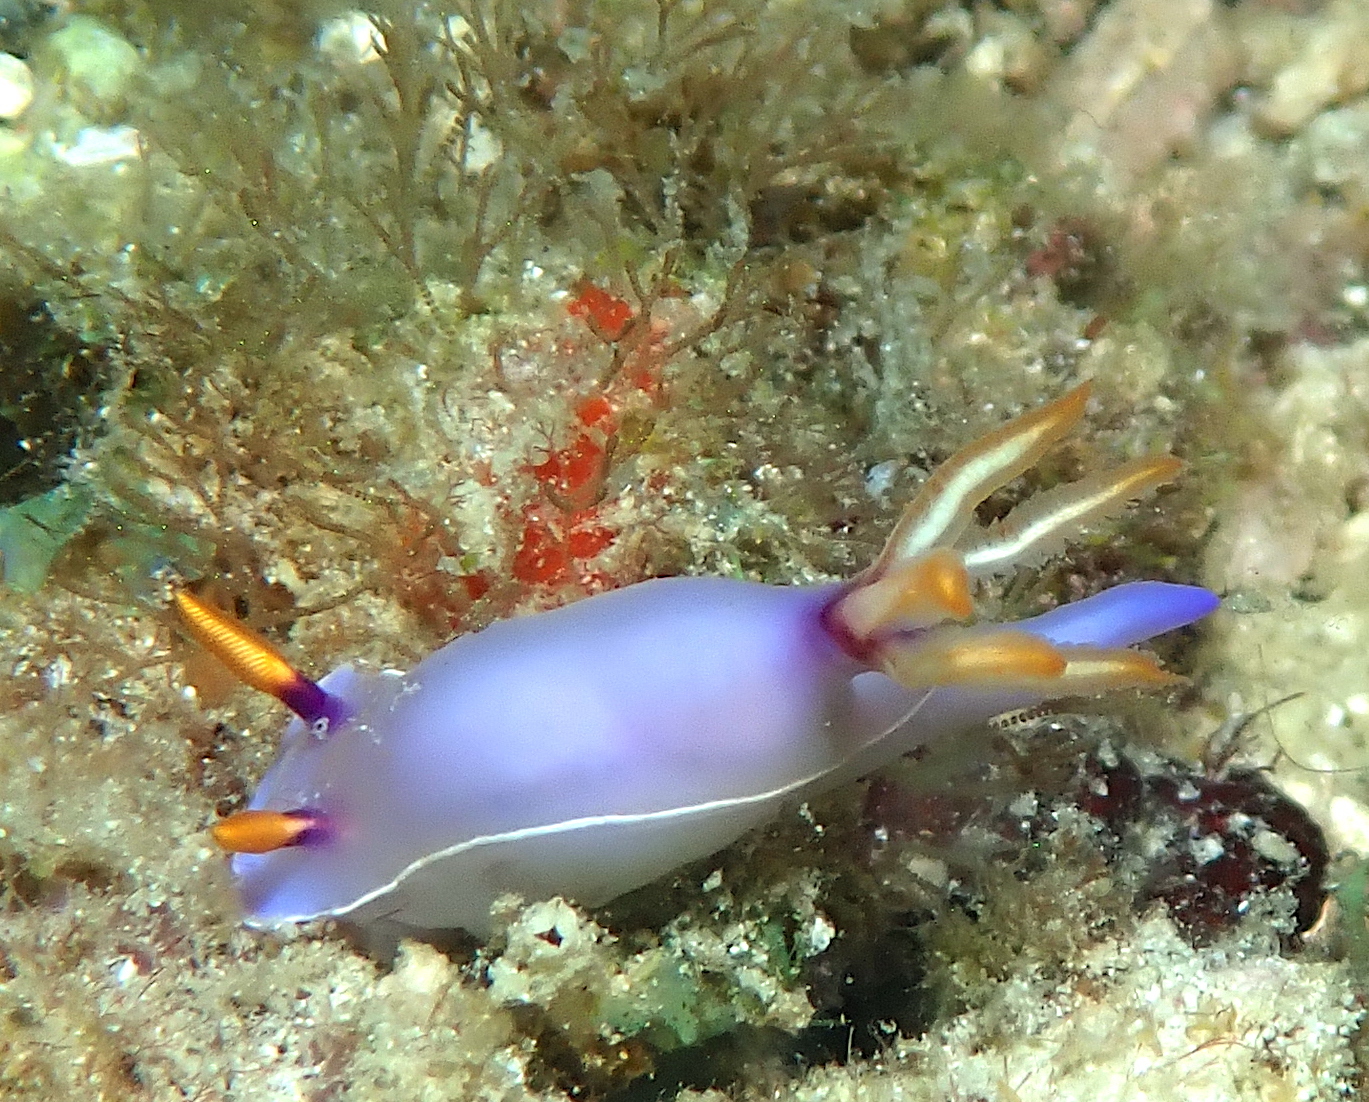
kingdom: Animalia
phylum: Mollusca
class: Gastropoda
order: Nudibranchia
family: Chromodorididae
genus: Hypselodoris
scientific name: Hypselodoris bullockii
